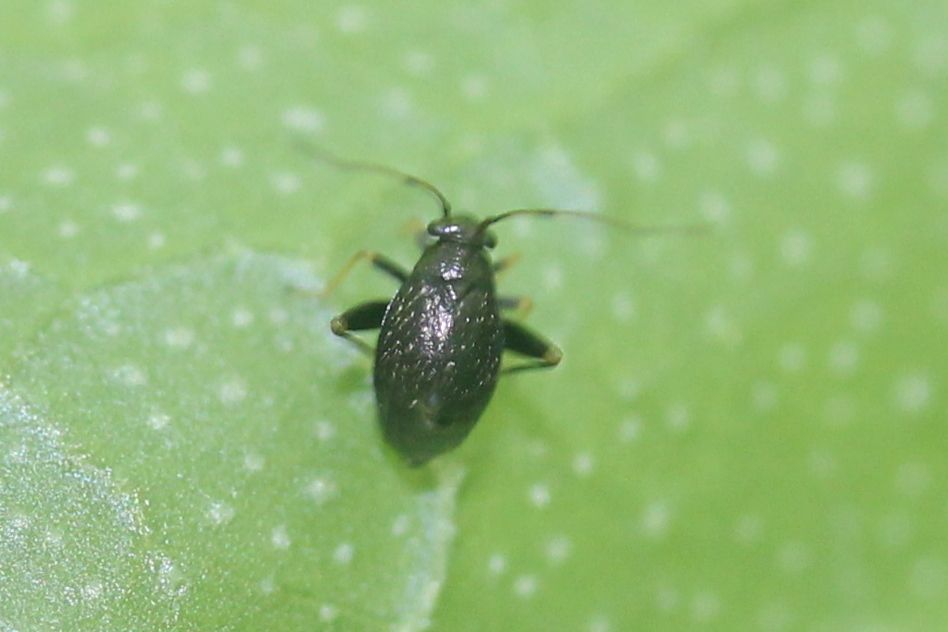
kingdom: Animalia
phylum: Arthropoda
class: Insecta
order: Hemiptera
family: Miridae
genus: Microtechnites
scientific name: Microtechnites bractatus
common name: Garden fleahopper
